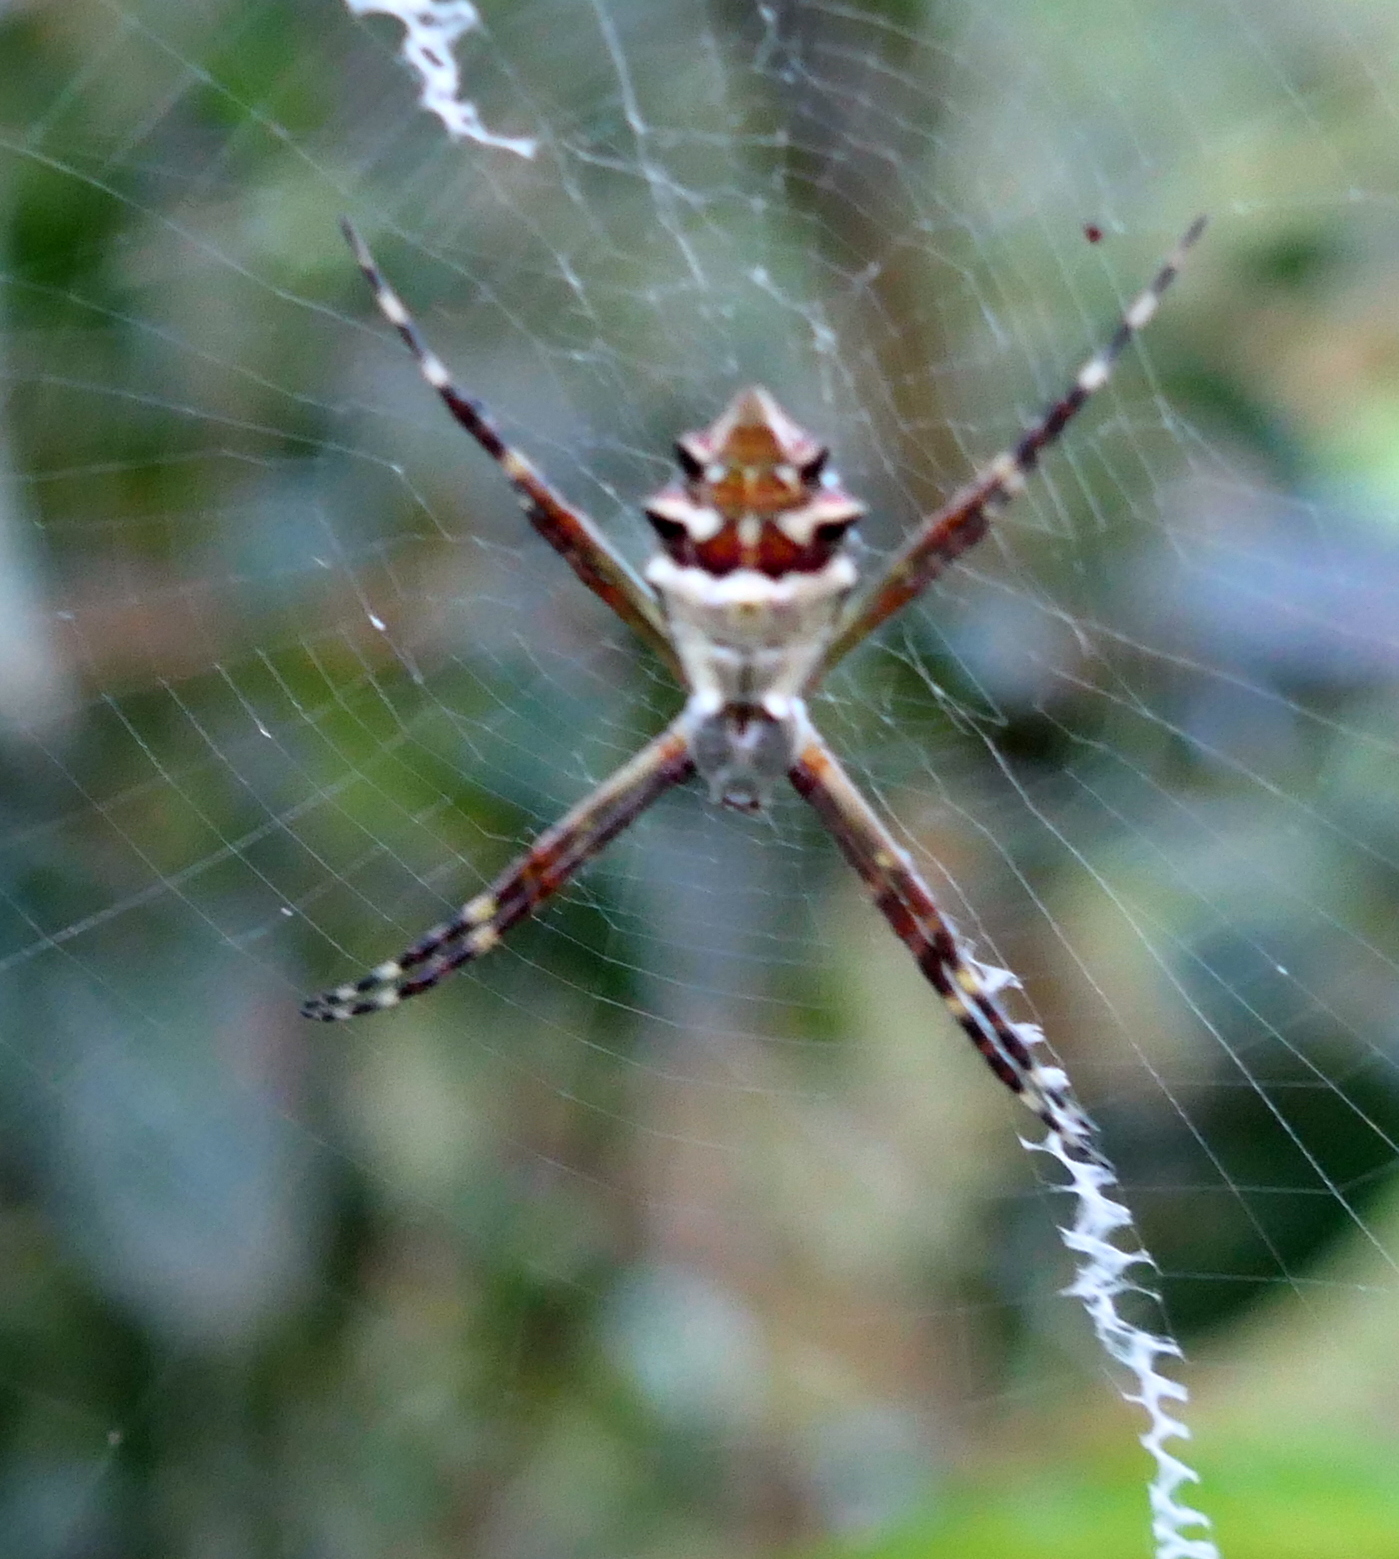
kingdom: Animalia
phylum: Arthropoda
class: Arachnida
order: Araneae
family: Araneidae
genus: Argiope
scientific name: Argiope argentata
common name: Orb weavers
